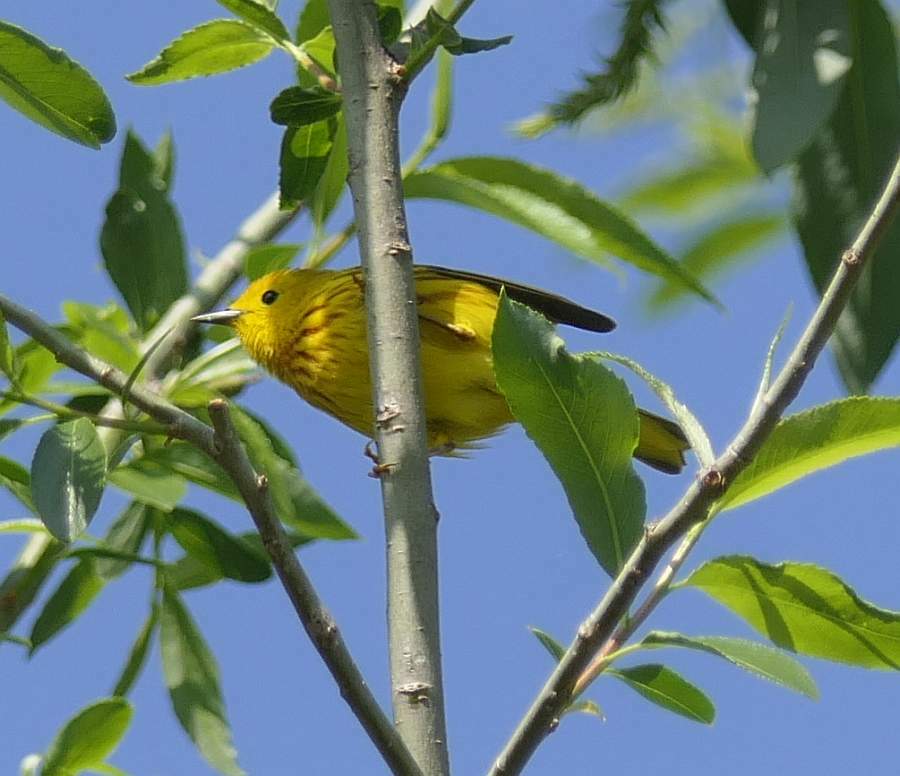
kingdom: Animalia
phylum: Chordata
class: Aves
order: Passeriformes
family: Parulidae
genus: Setophaga
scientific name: Setophaga petechia
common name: Yellow warbler
